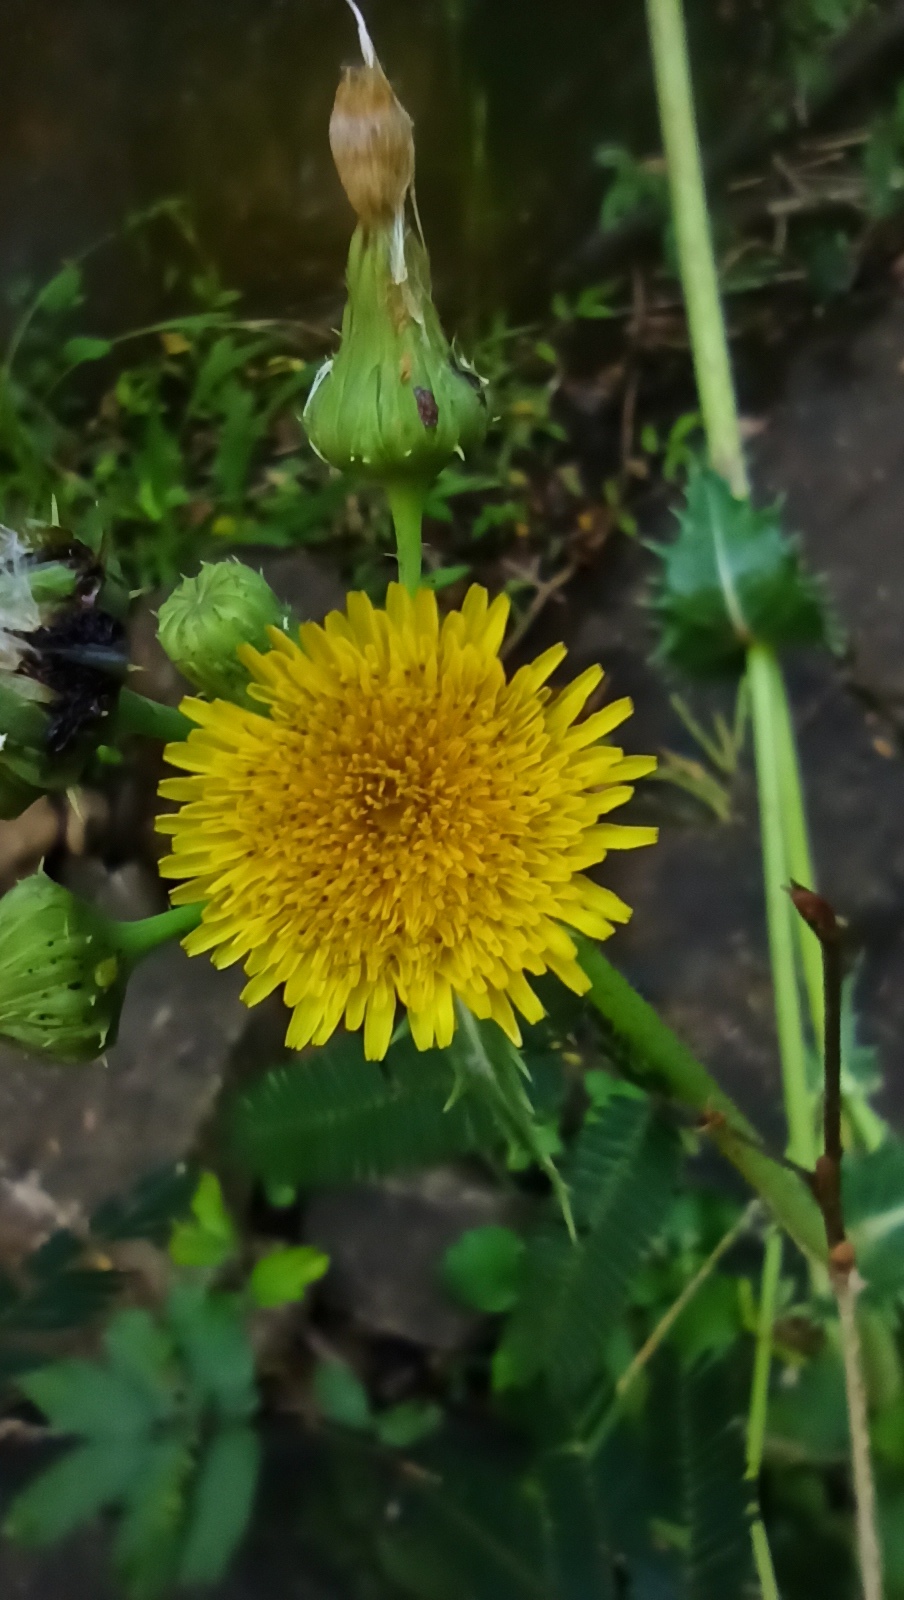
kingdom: Plantae
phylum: Tracheophyta
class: Magnoliopsida
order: Asterales
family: Asteraceae
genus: Sonchus
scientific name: Sonchus asper
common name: Prickly sow-thistle
